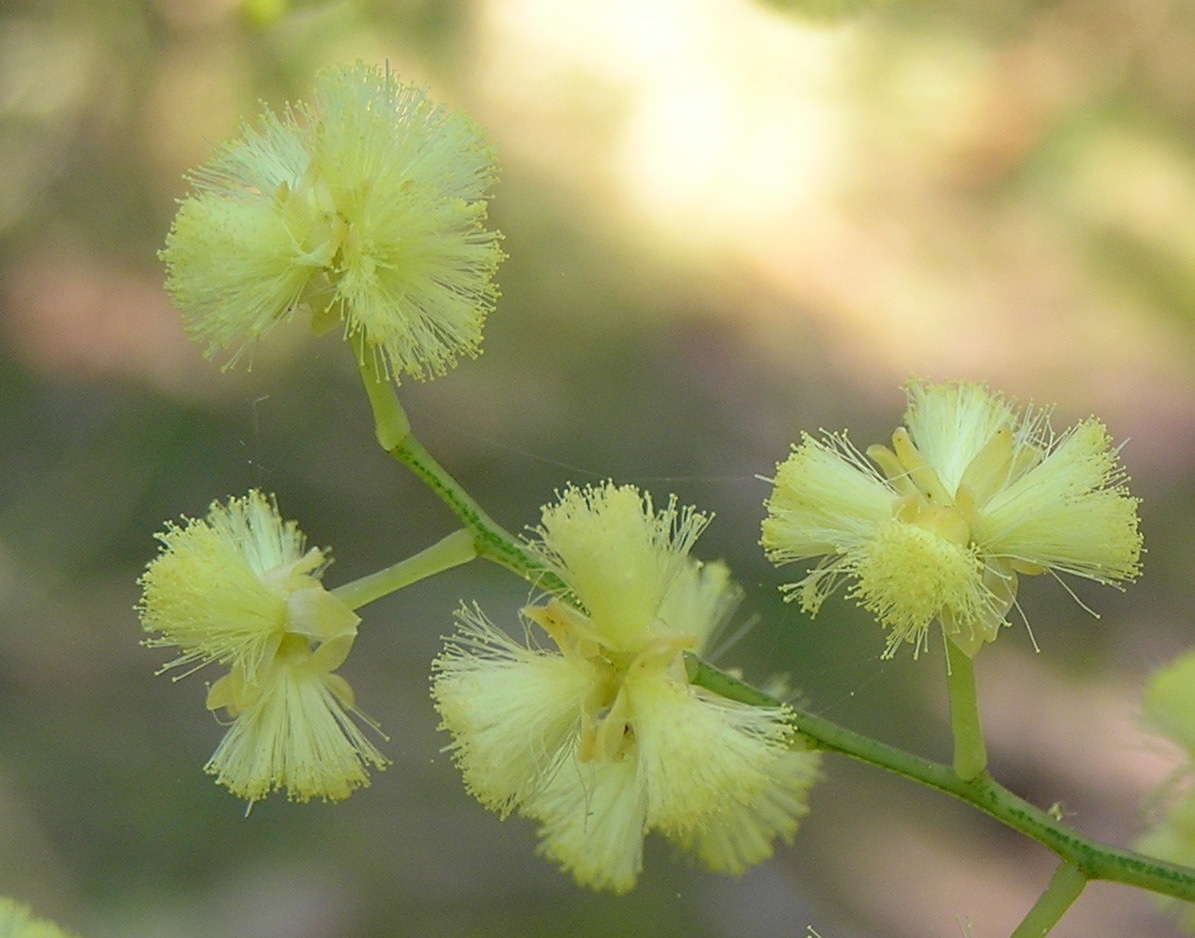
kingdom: Plantae
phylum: Tracheophyta
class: Magnoliopsida
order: Fabales
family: Fabaceae
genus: Acacia
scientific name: Acacia myrtifolia
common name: Myrtle wattle
